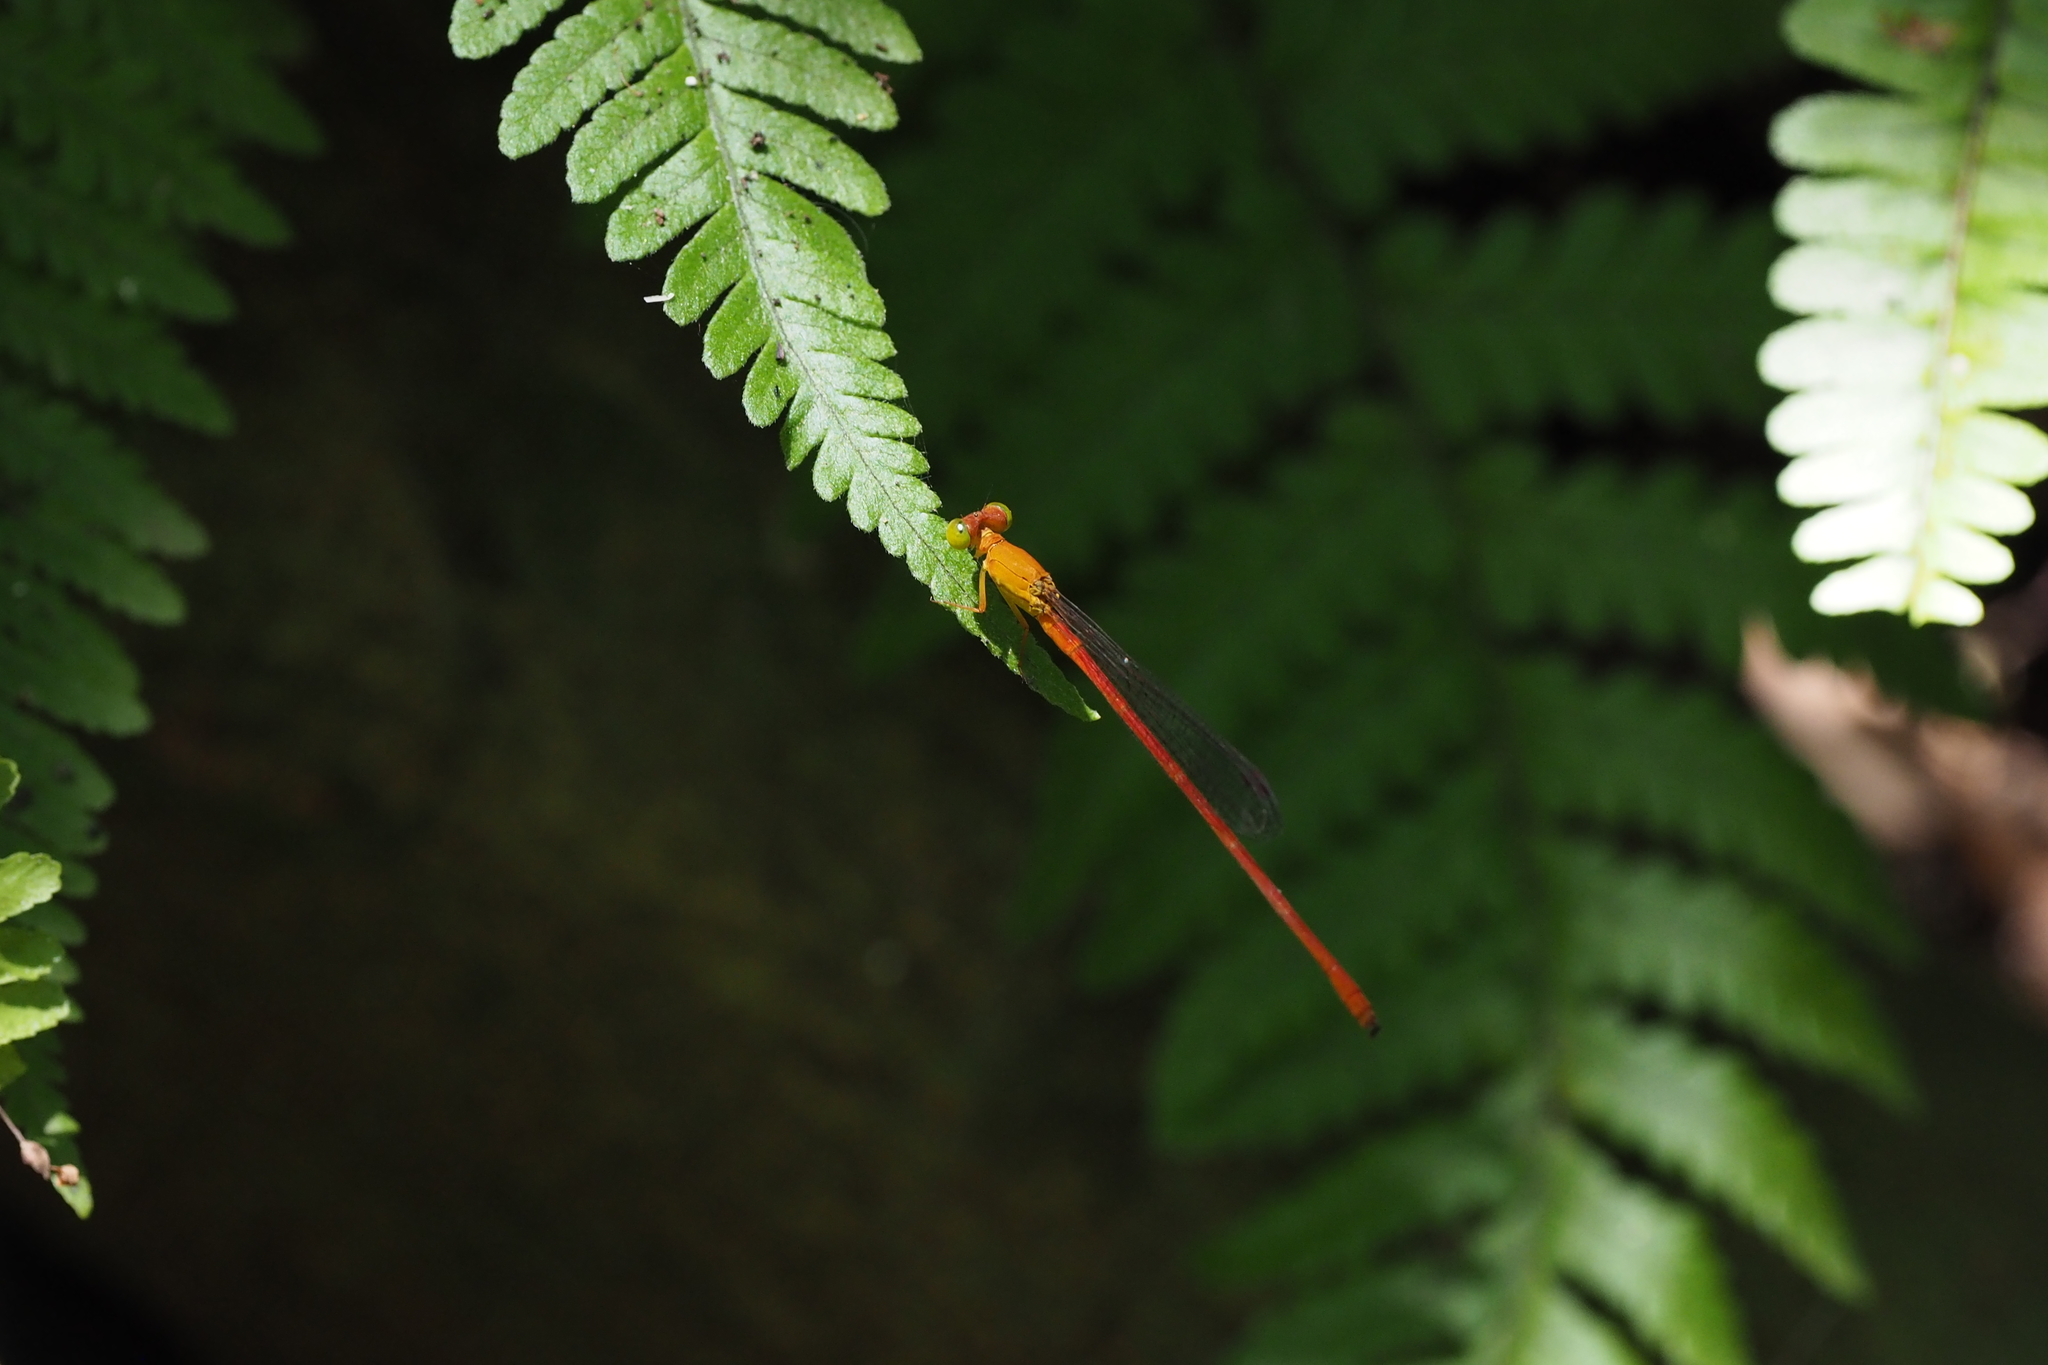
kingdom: Animalia
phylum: Arthropoda
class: Insecta
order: Odonata
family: Coenagrionidae
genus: Ceriagrion
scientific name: Ceriagrion auranticum
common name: Orange-tailed sprite
